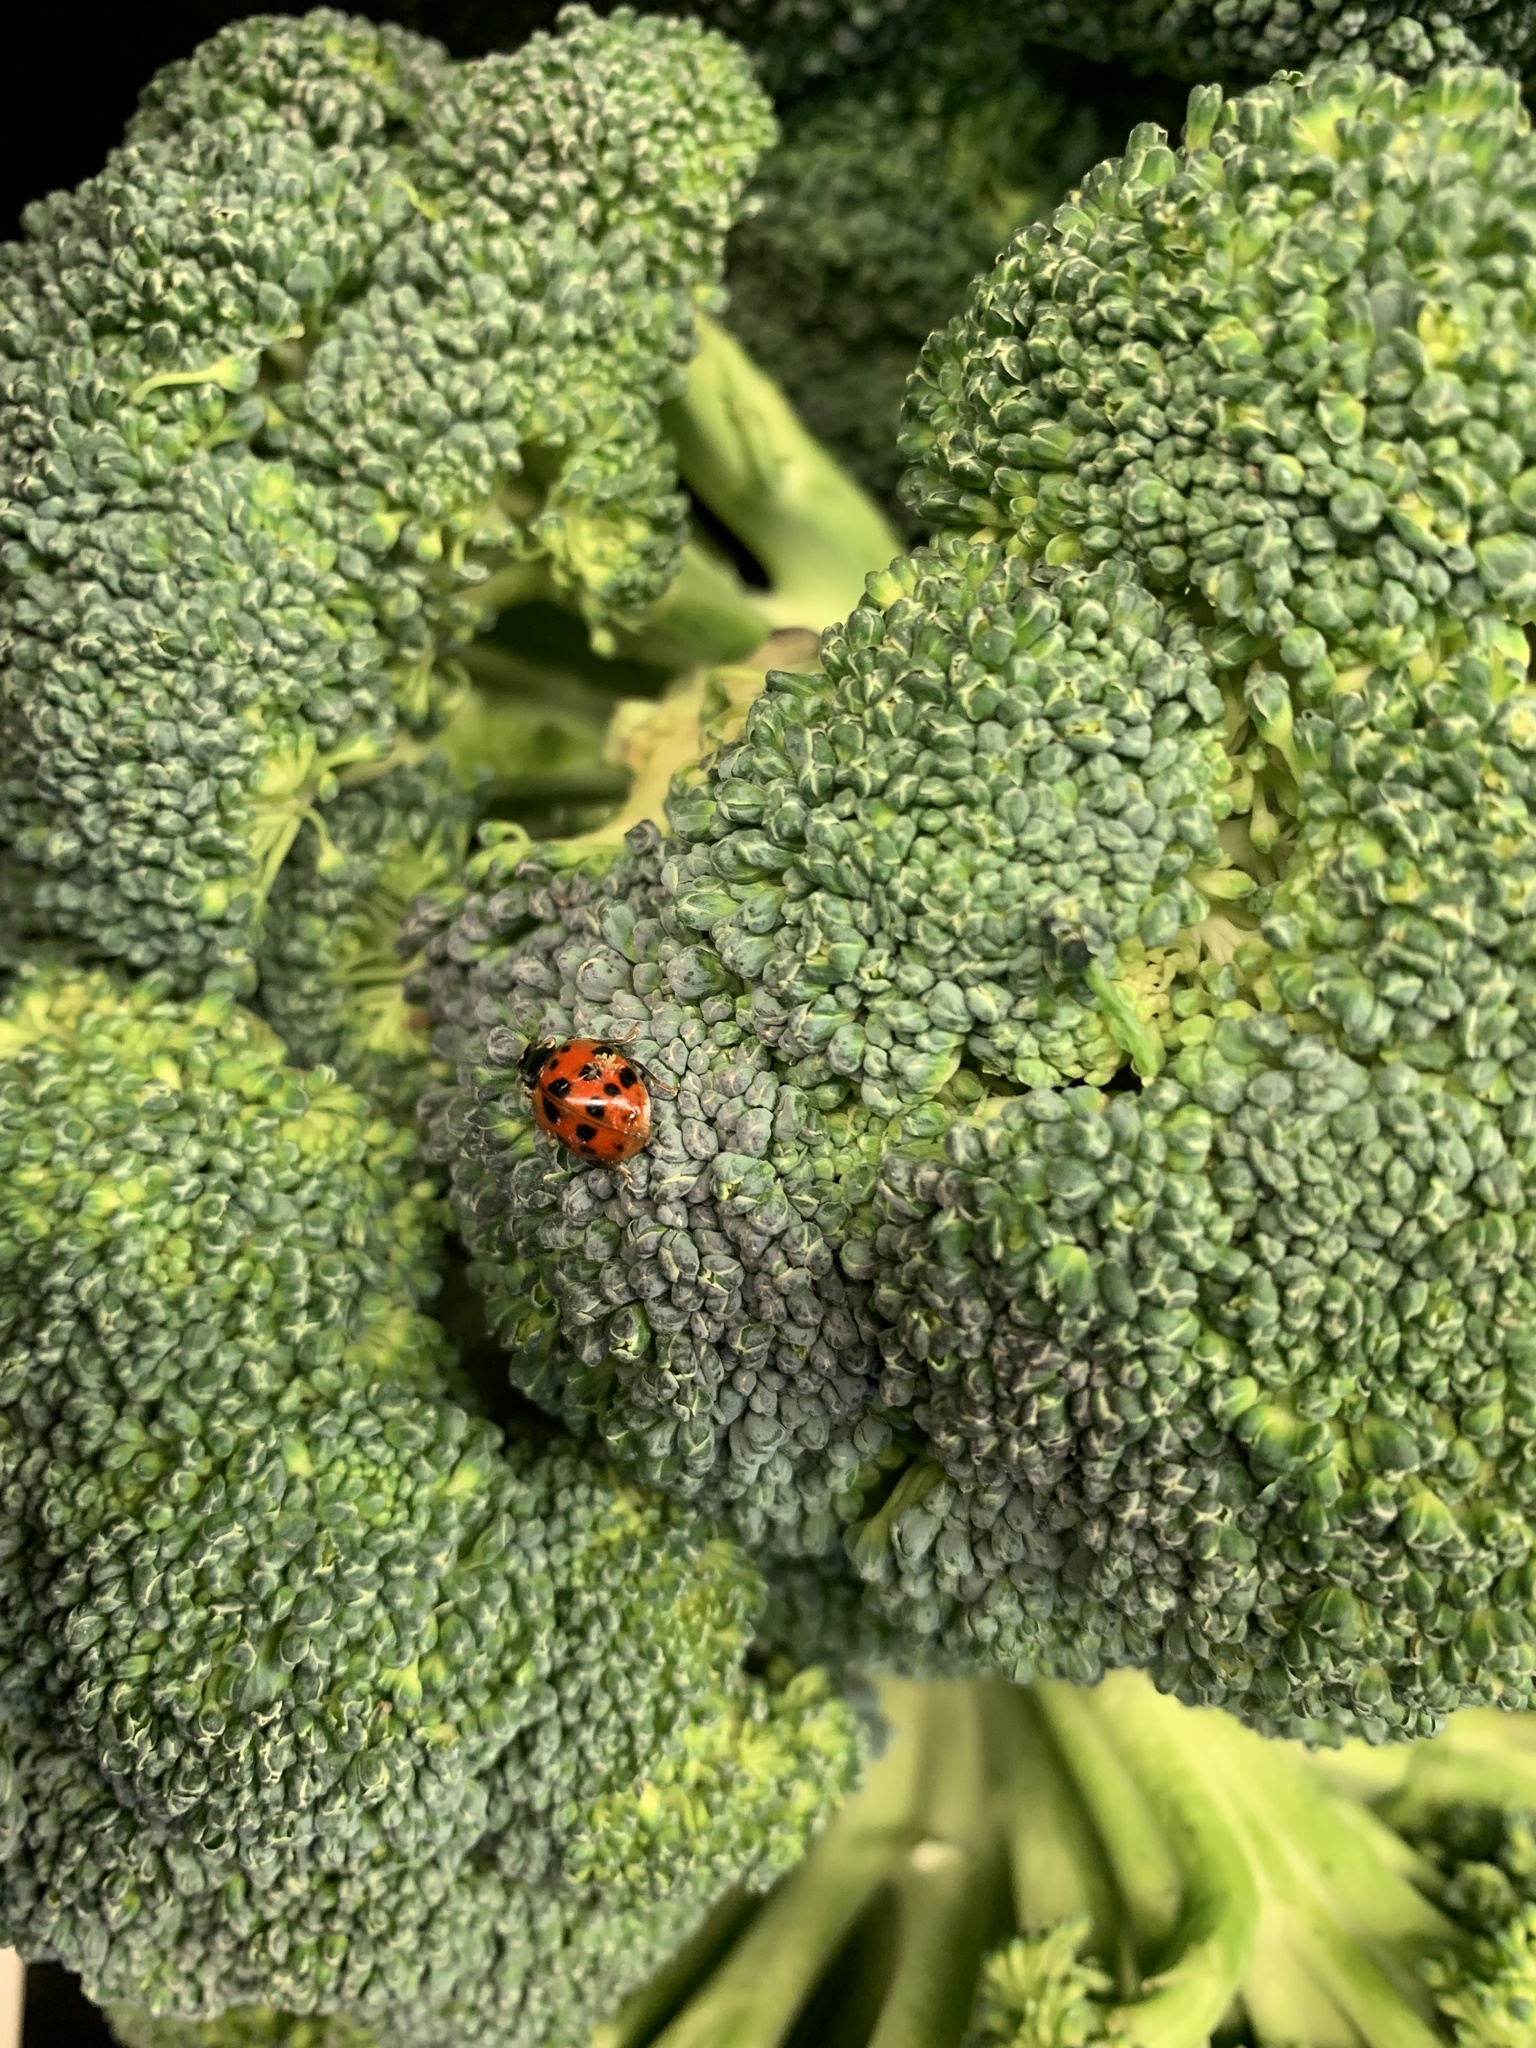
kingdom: Animalia
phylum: Arthropoda
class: Insecta
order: Coleoptera
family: Coccinellidae
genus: Harmonia
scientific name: Harmonia axyridis
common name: Harlequin ladybird
